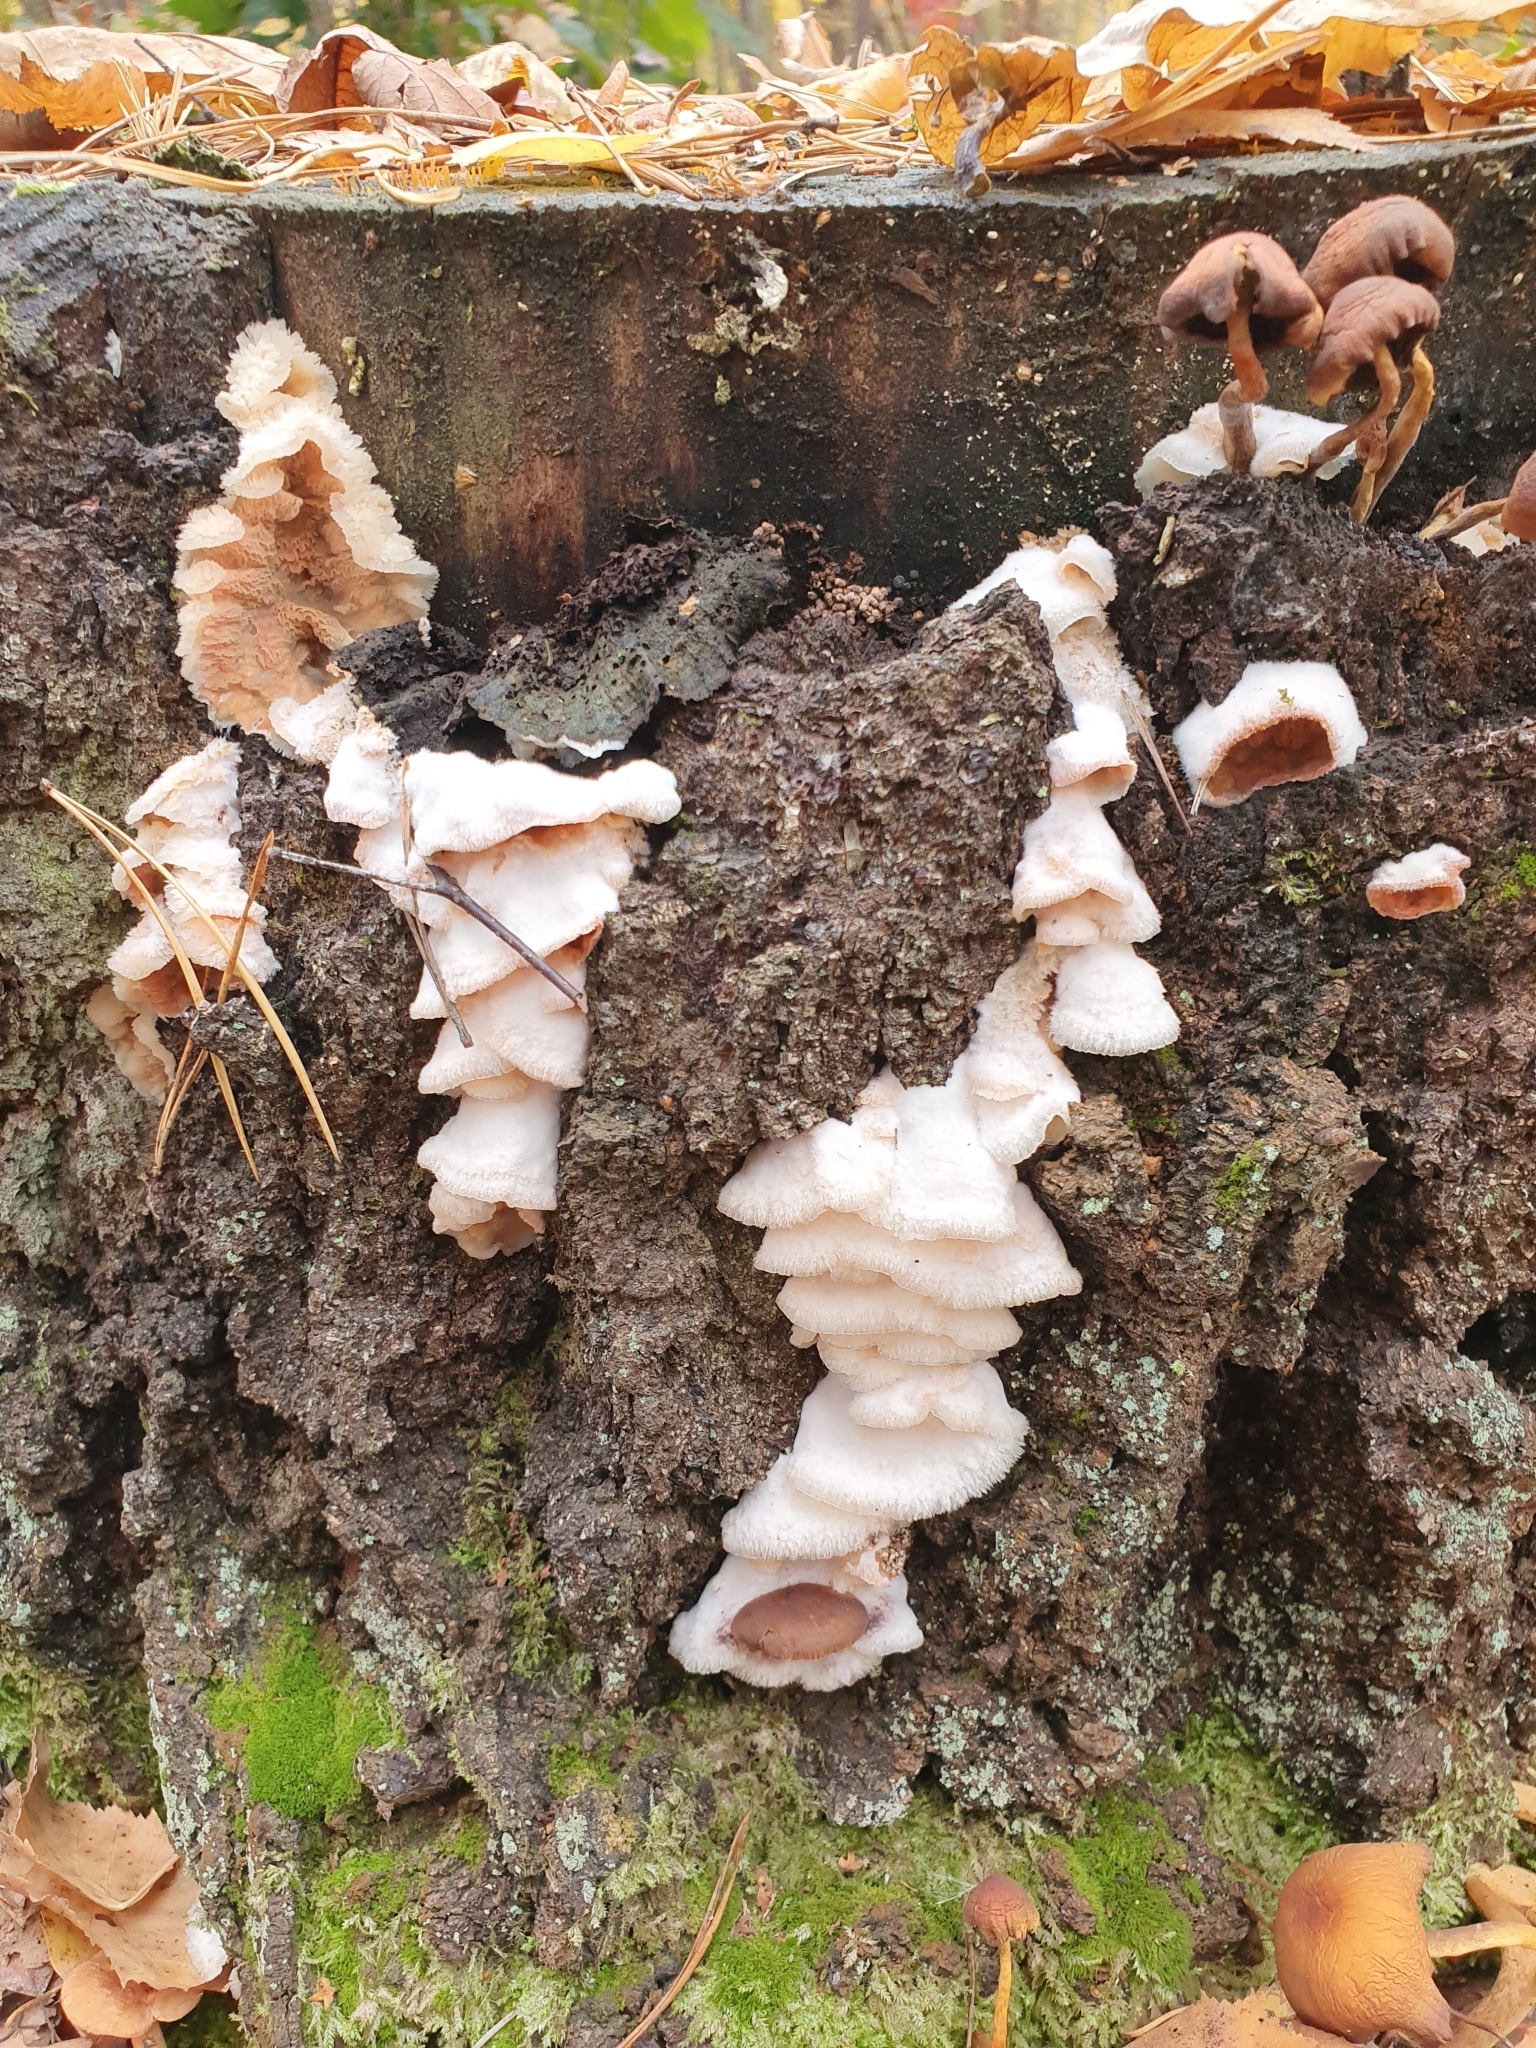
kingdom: Fungi
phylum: Basidiomycota
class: Agaricomycetes
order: Polyporales
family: Meruliaceae
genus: Phlebia
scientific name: Phlebia tremellosa
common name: Jelly rot
